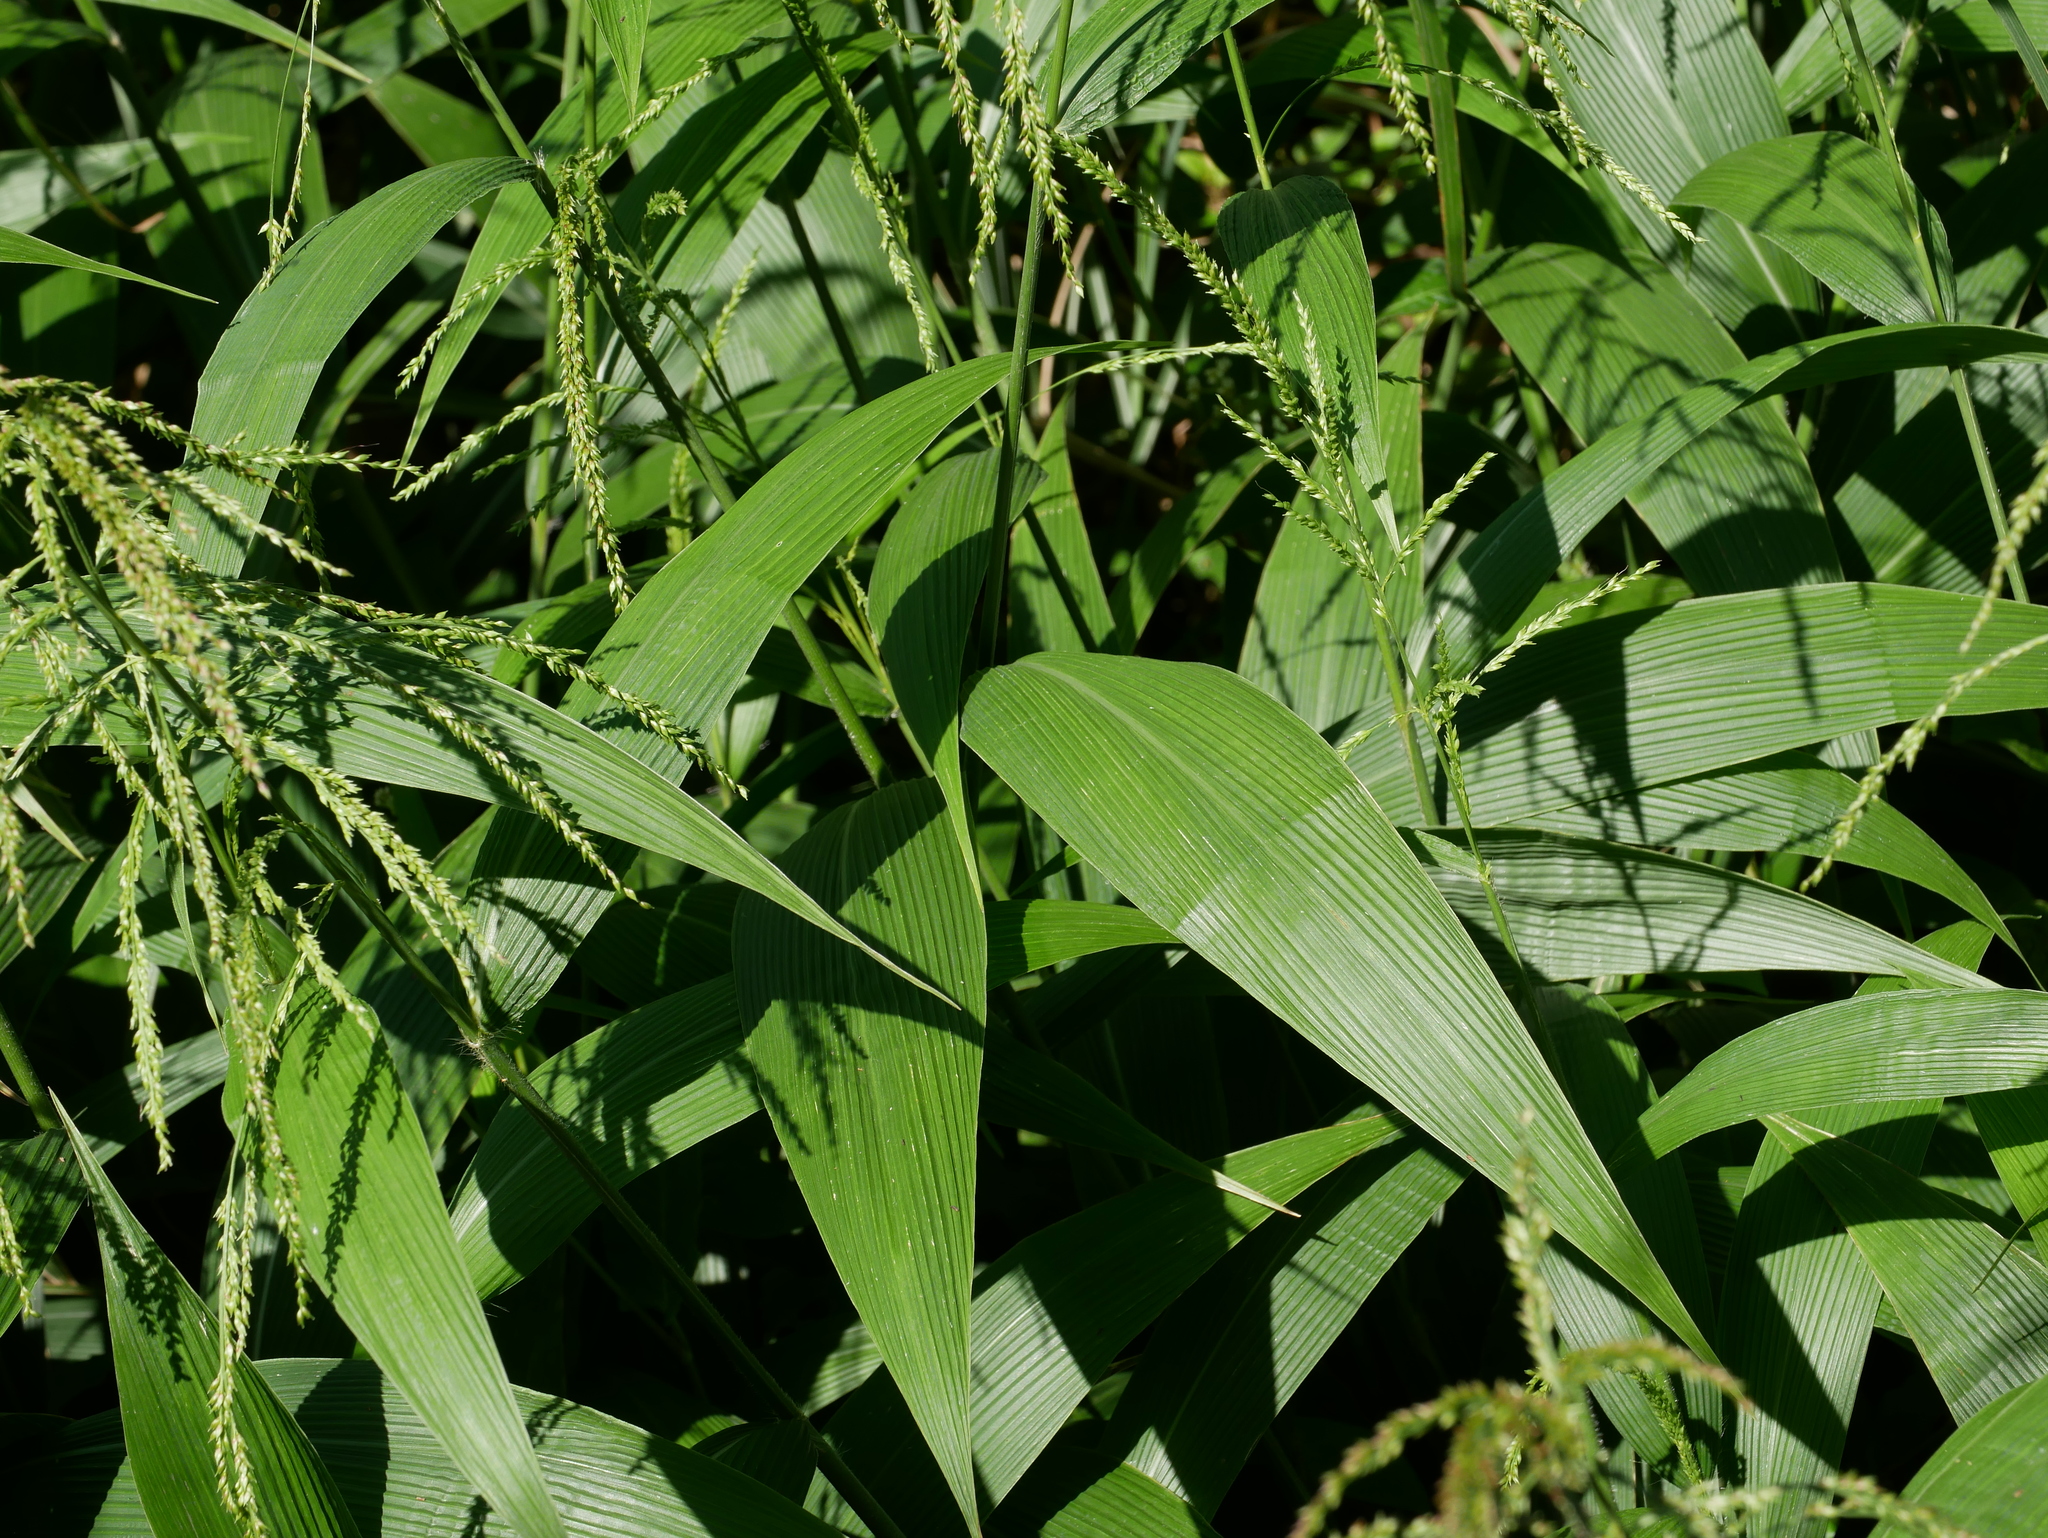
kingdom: Plantae
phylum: Tracheophyta
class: Liliopsida
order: Poales
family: Poaceae
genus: Setaria
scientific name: Setaria palmifolia
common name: Broadleaved bristlegrass
